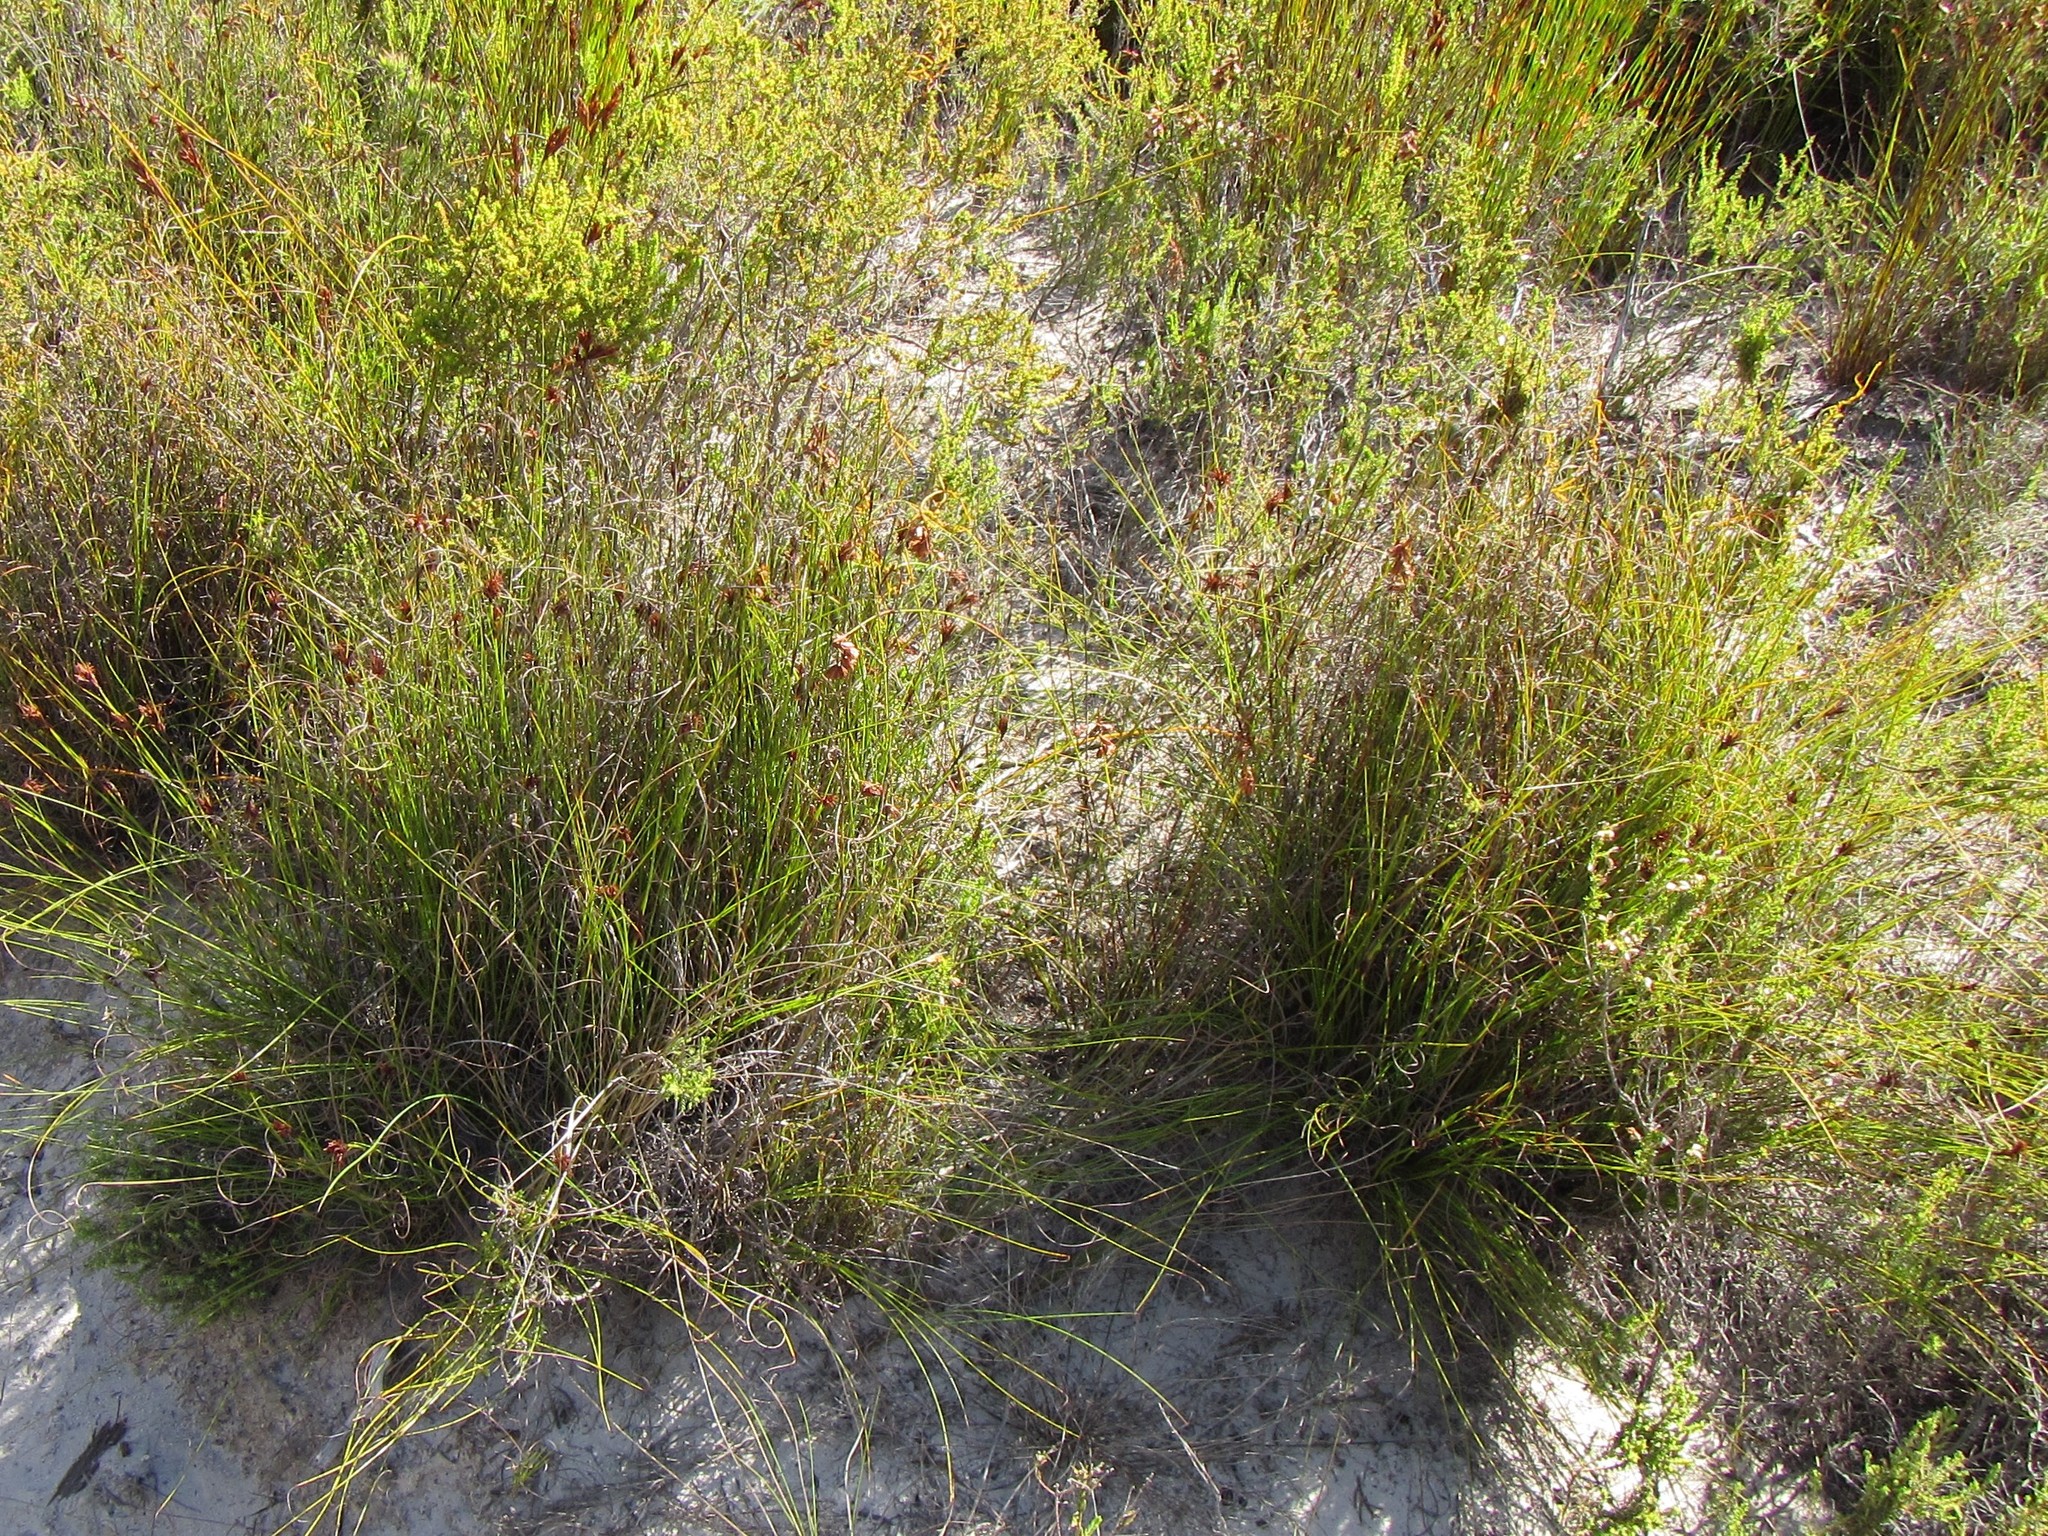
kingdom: Plantae
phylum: Tracheophyta
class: Liliopsida
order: Poales
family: Cyperaceae
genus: Tetraria
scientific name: Tetraria crinifolia
